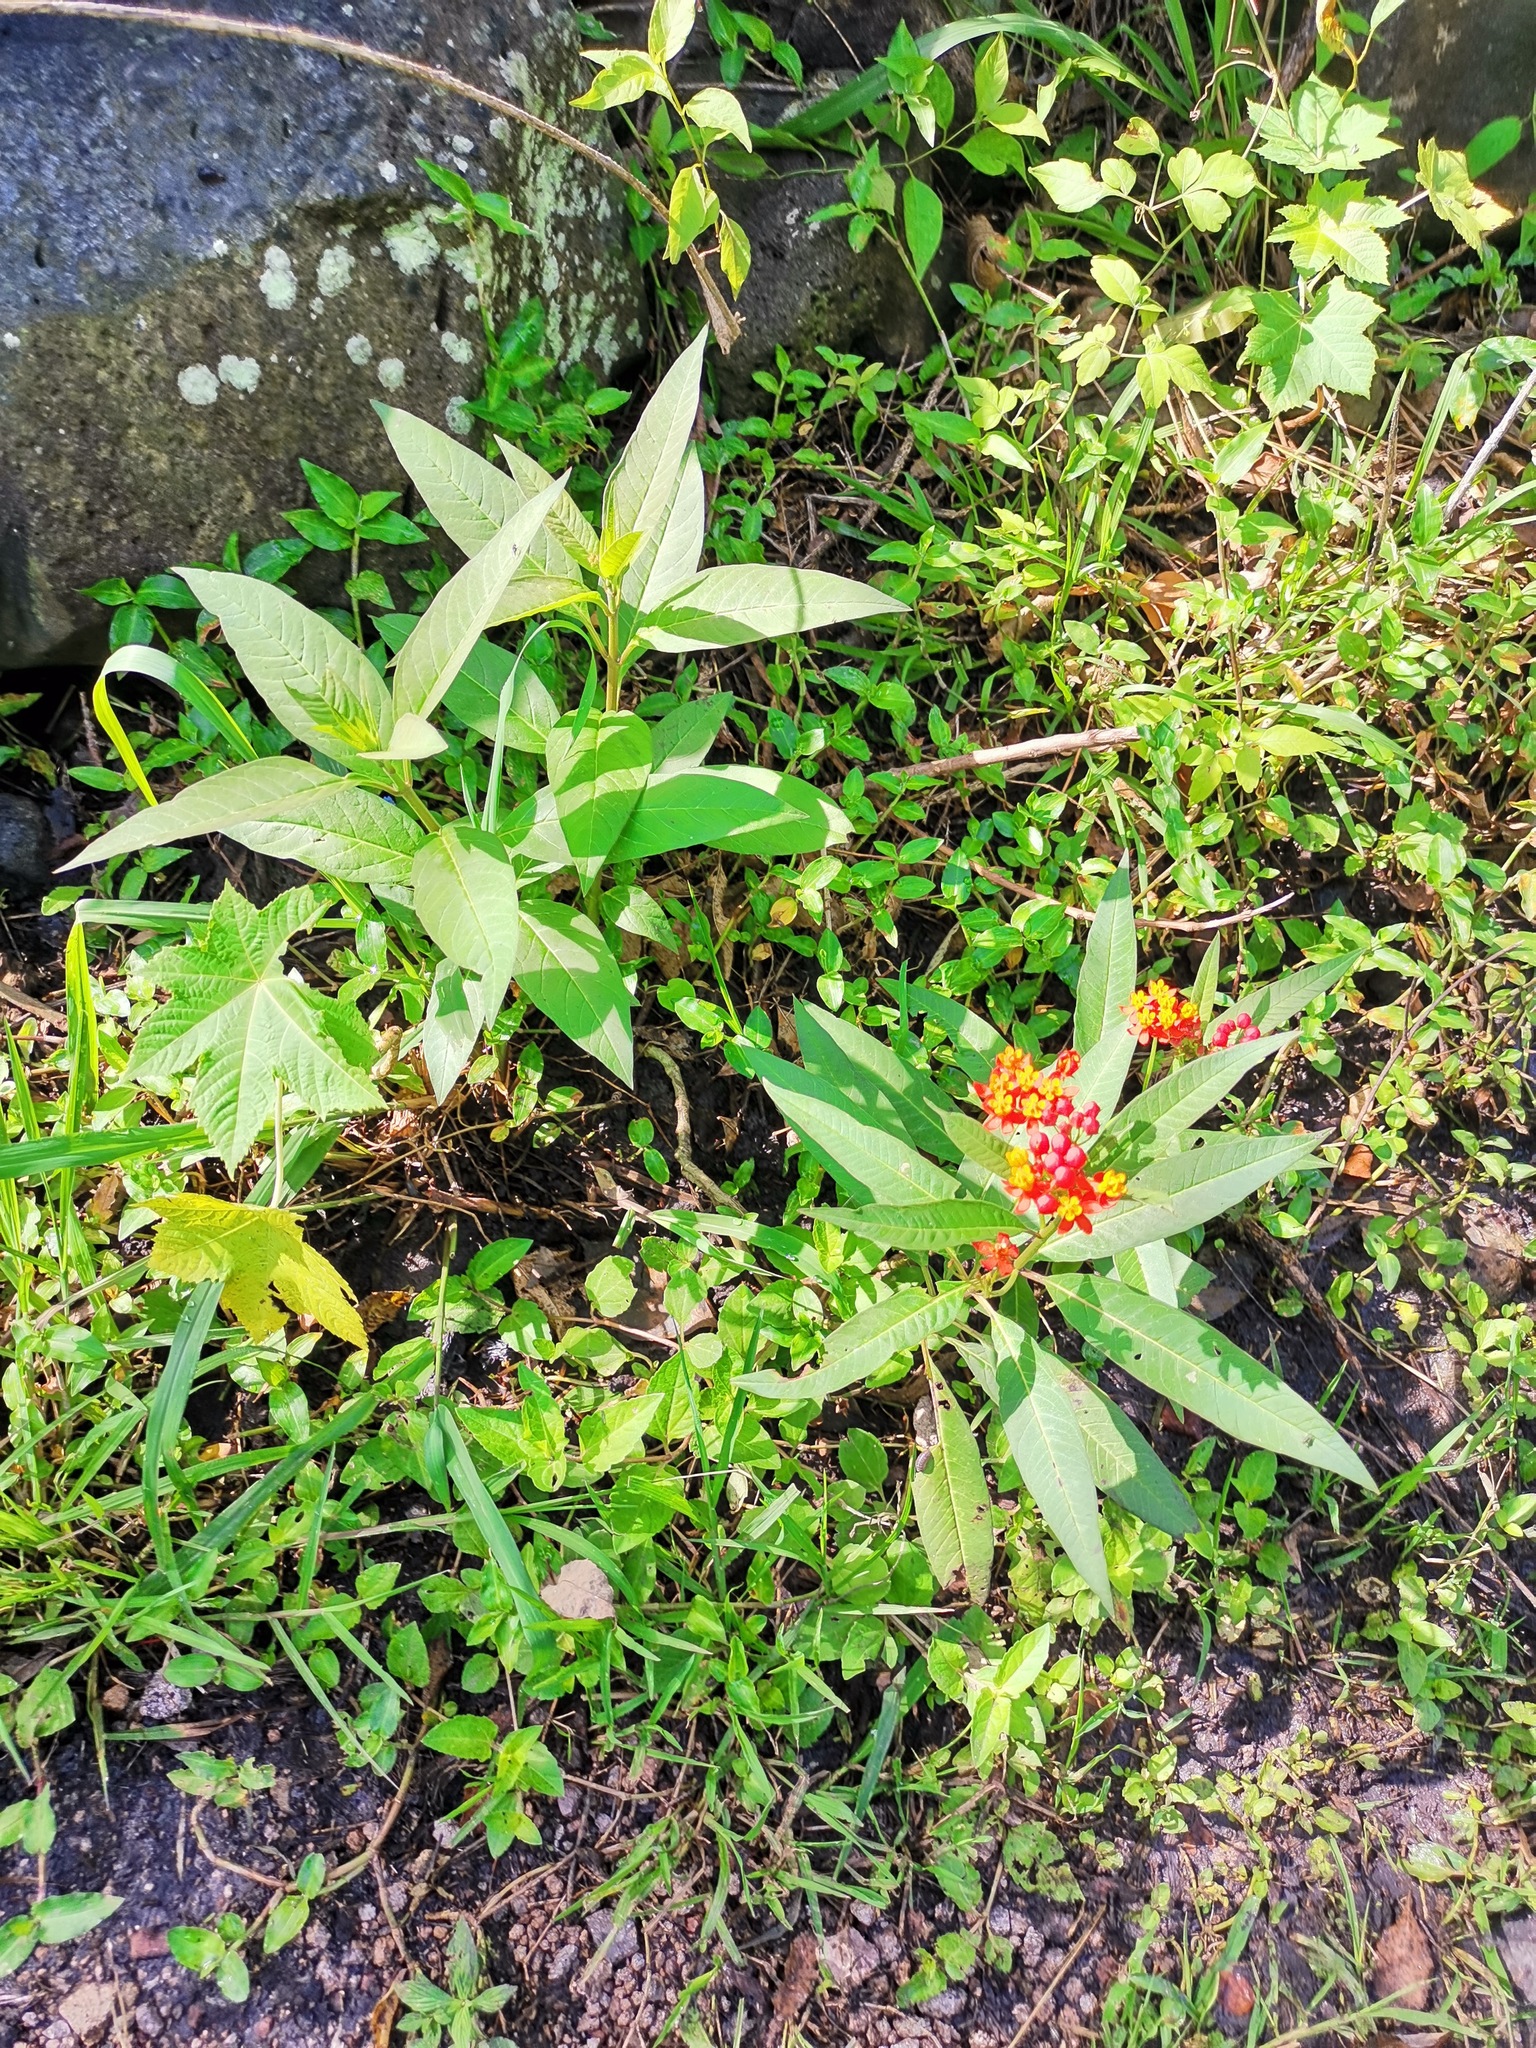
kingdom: Plantae
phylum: Tracheophyta
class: Magnoliopsida
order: Gentianales
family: Apocynaceae
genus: Asclepias
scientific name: Asclepias curassavica
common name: Bloodflower
